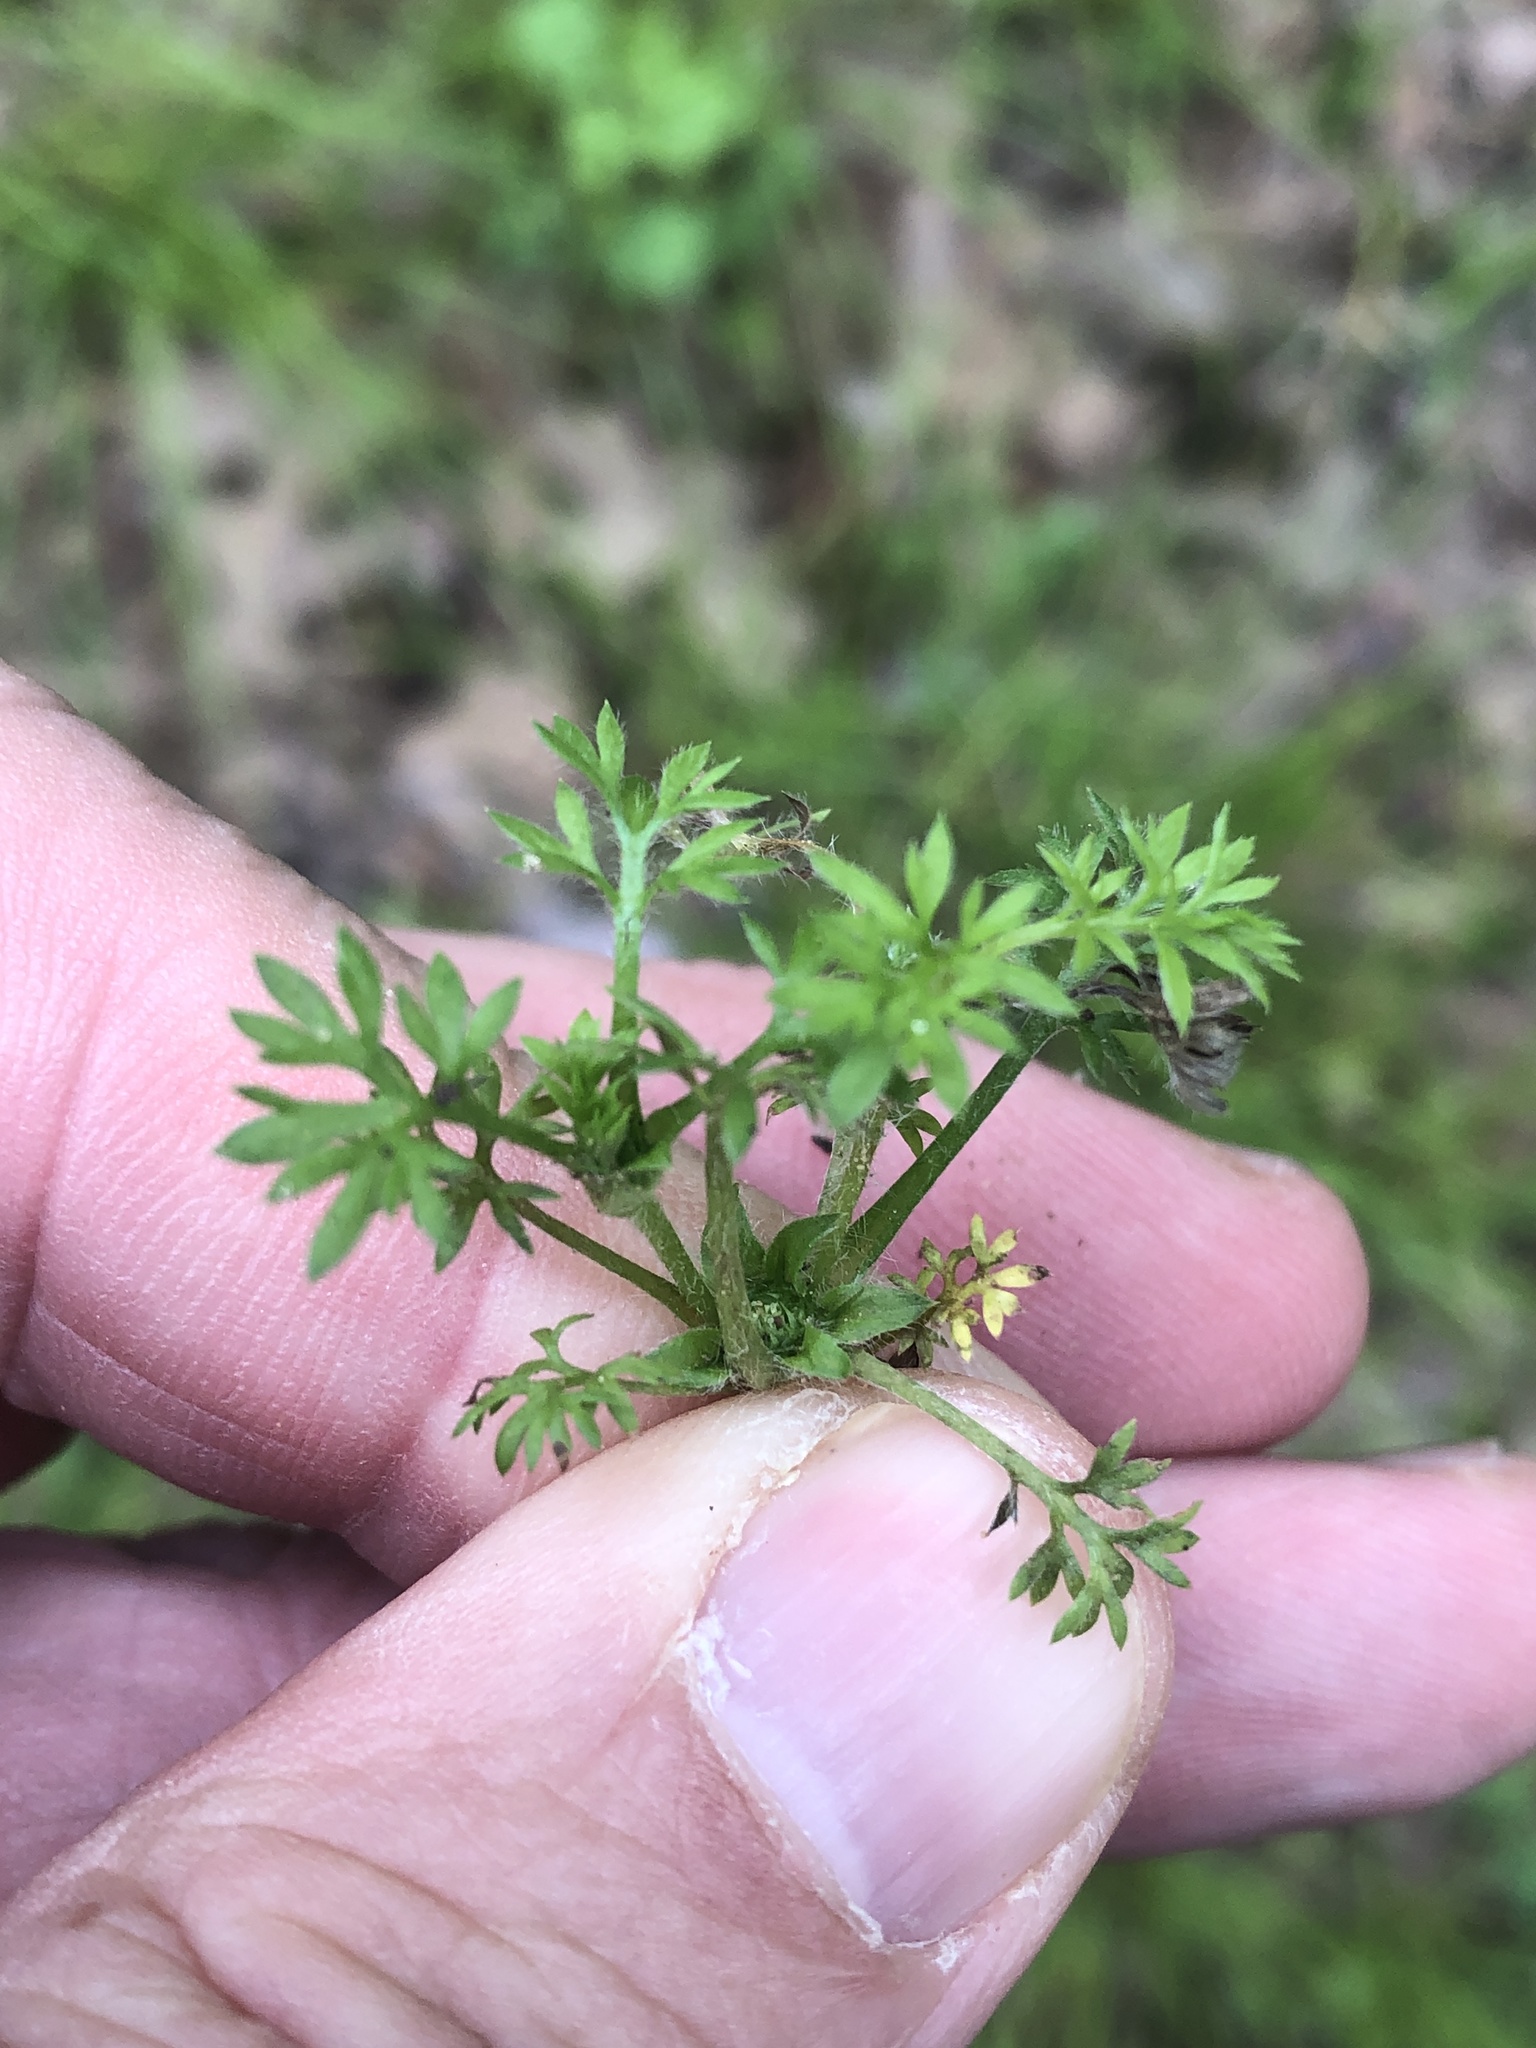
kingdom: Plantae
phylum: Tracheophyta
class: Magnoliopsida
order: Asterales
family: Asteraceae
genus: Soliva
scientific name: Soliva sessilis
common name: Field burrweed
